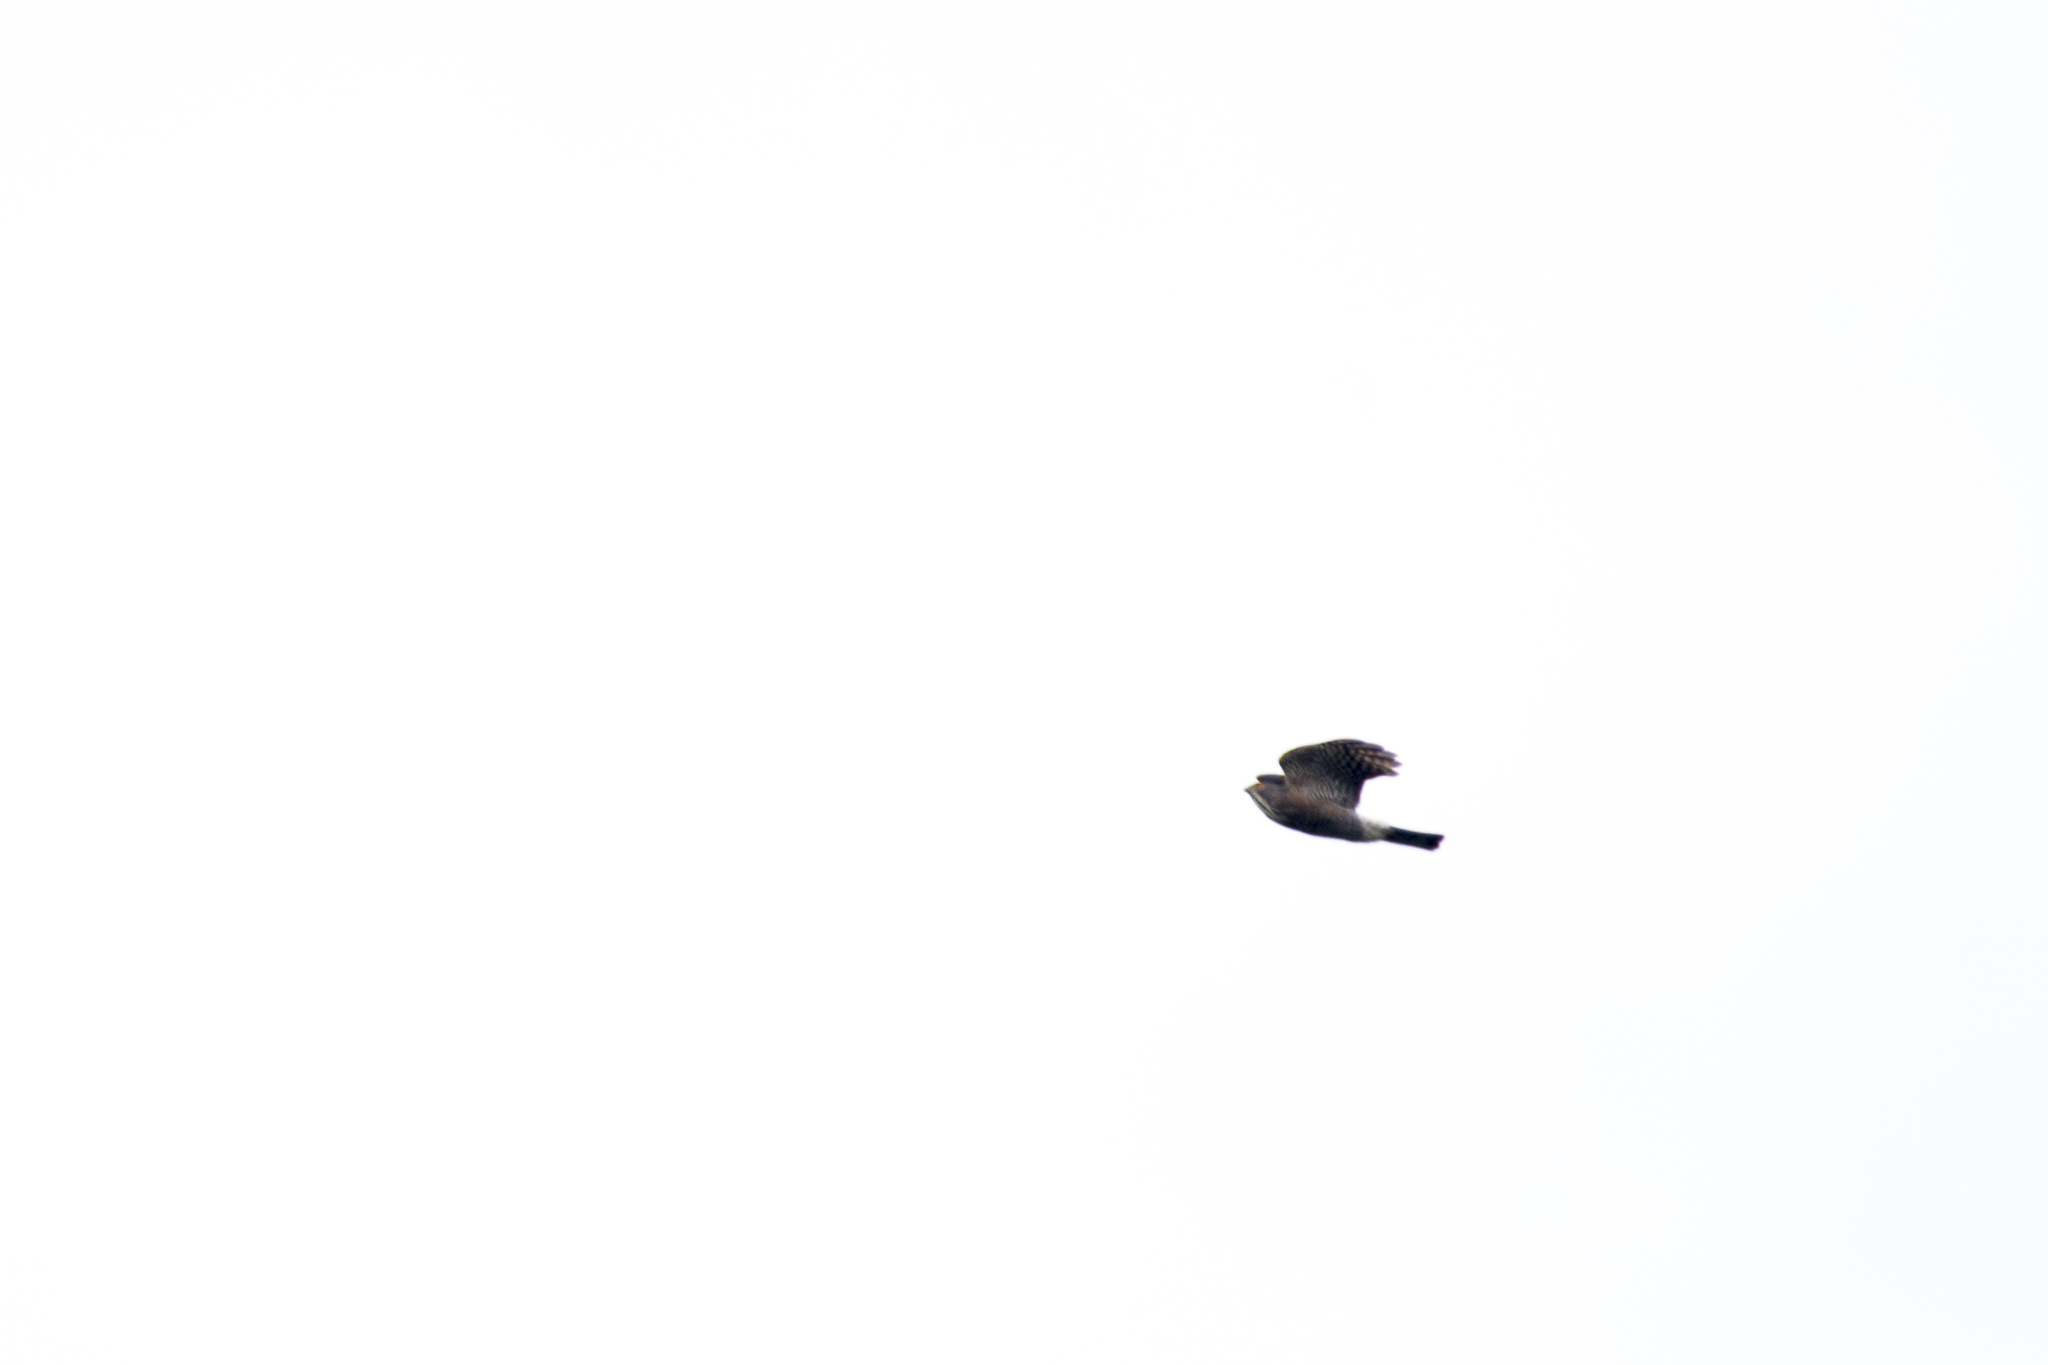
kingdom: Animalia
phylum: Chordata
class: Aves
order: Accipitriformes
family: Accipitridae
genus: Accipiter
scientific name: Accipiter virgatus
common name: Besra
